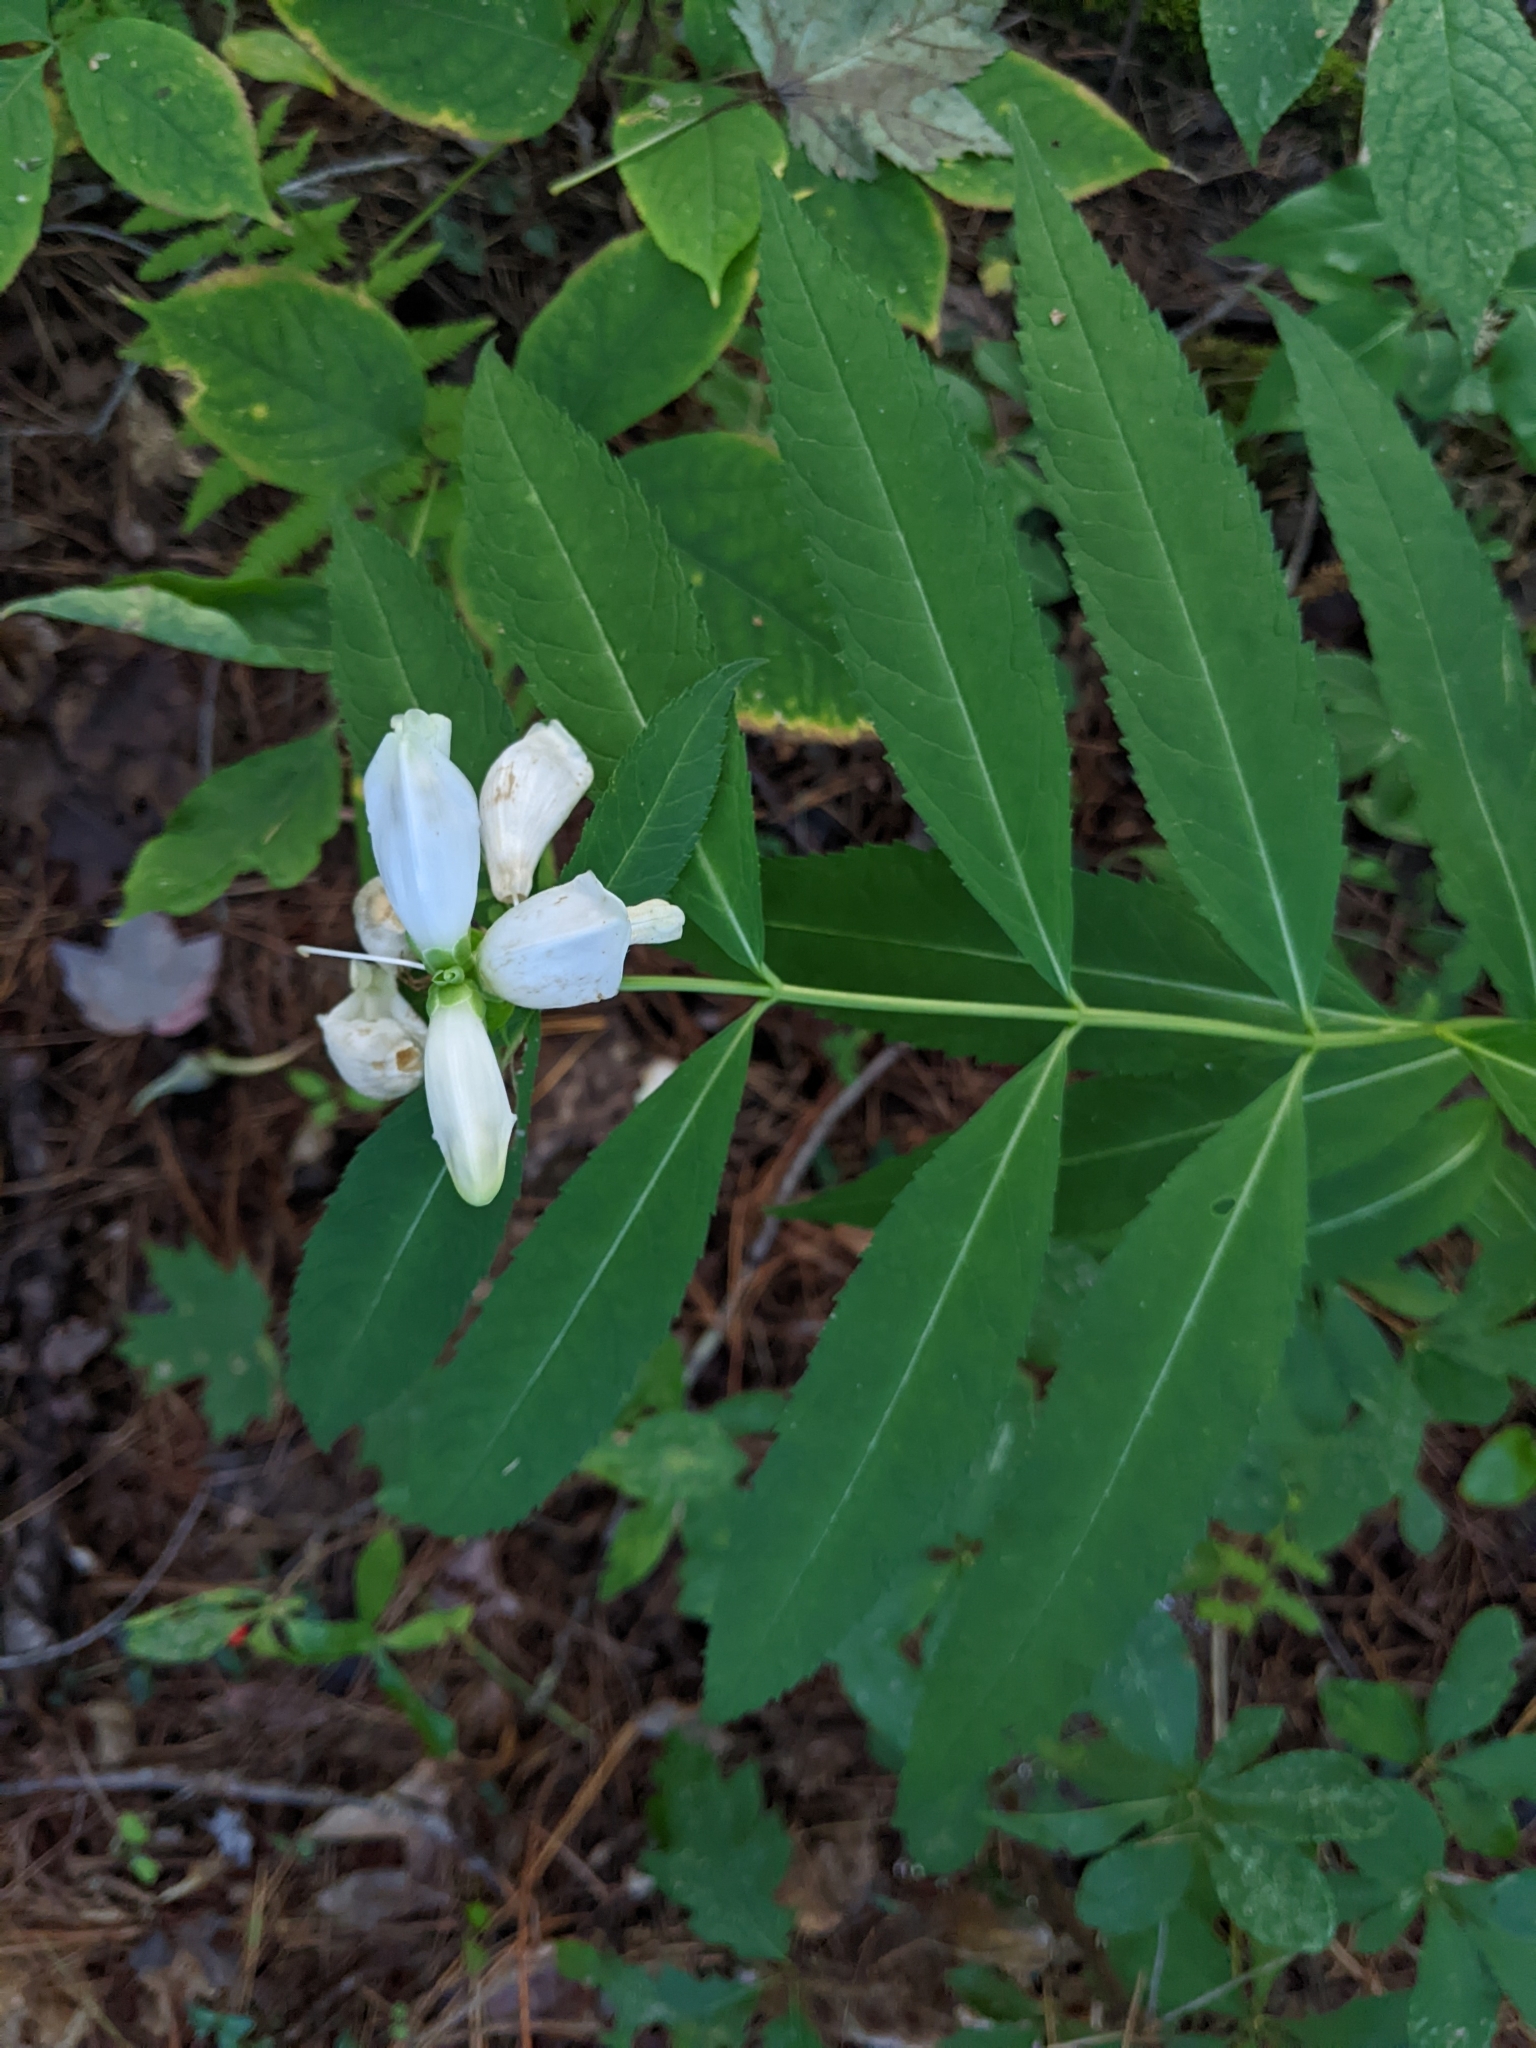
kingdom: Plantae
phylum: Tracheophyta
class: Magnoliopsida
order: Lamiales
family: Plantaginaceae
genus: Chelone
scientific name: Chelone glabra
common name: Snakehead
